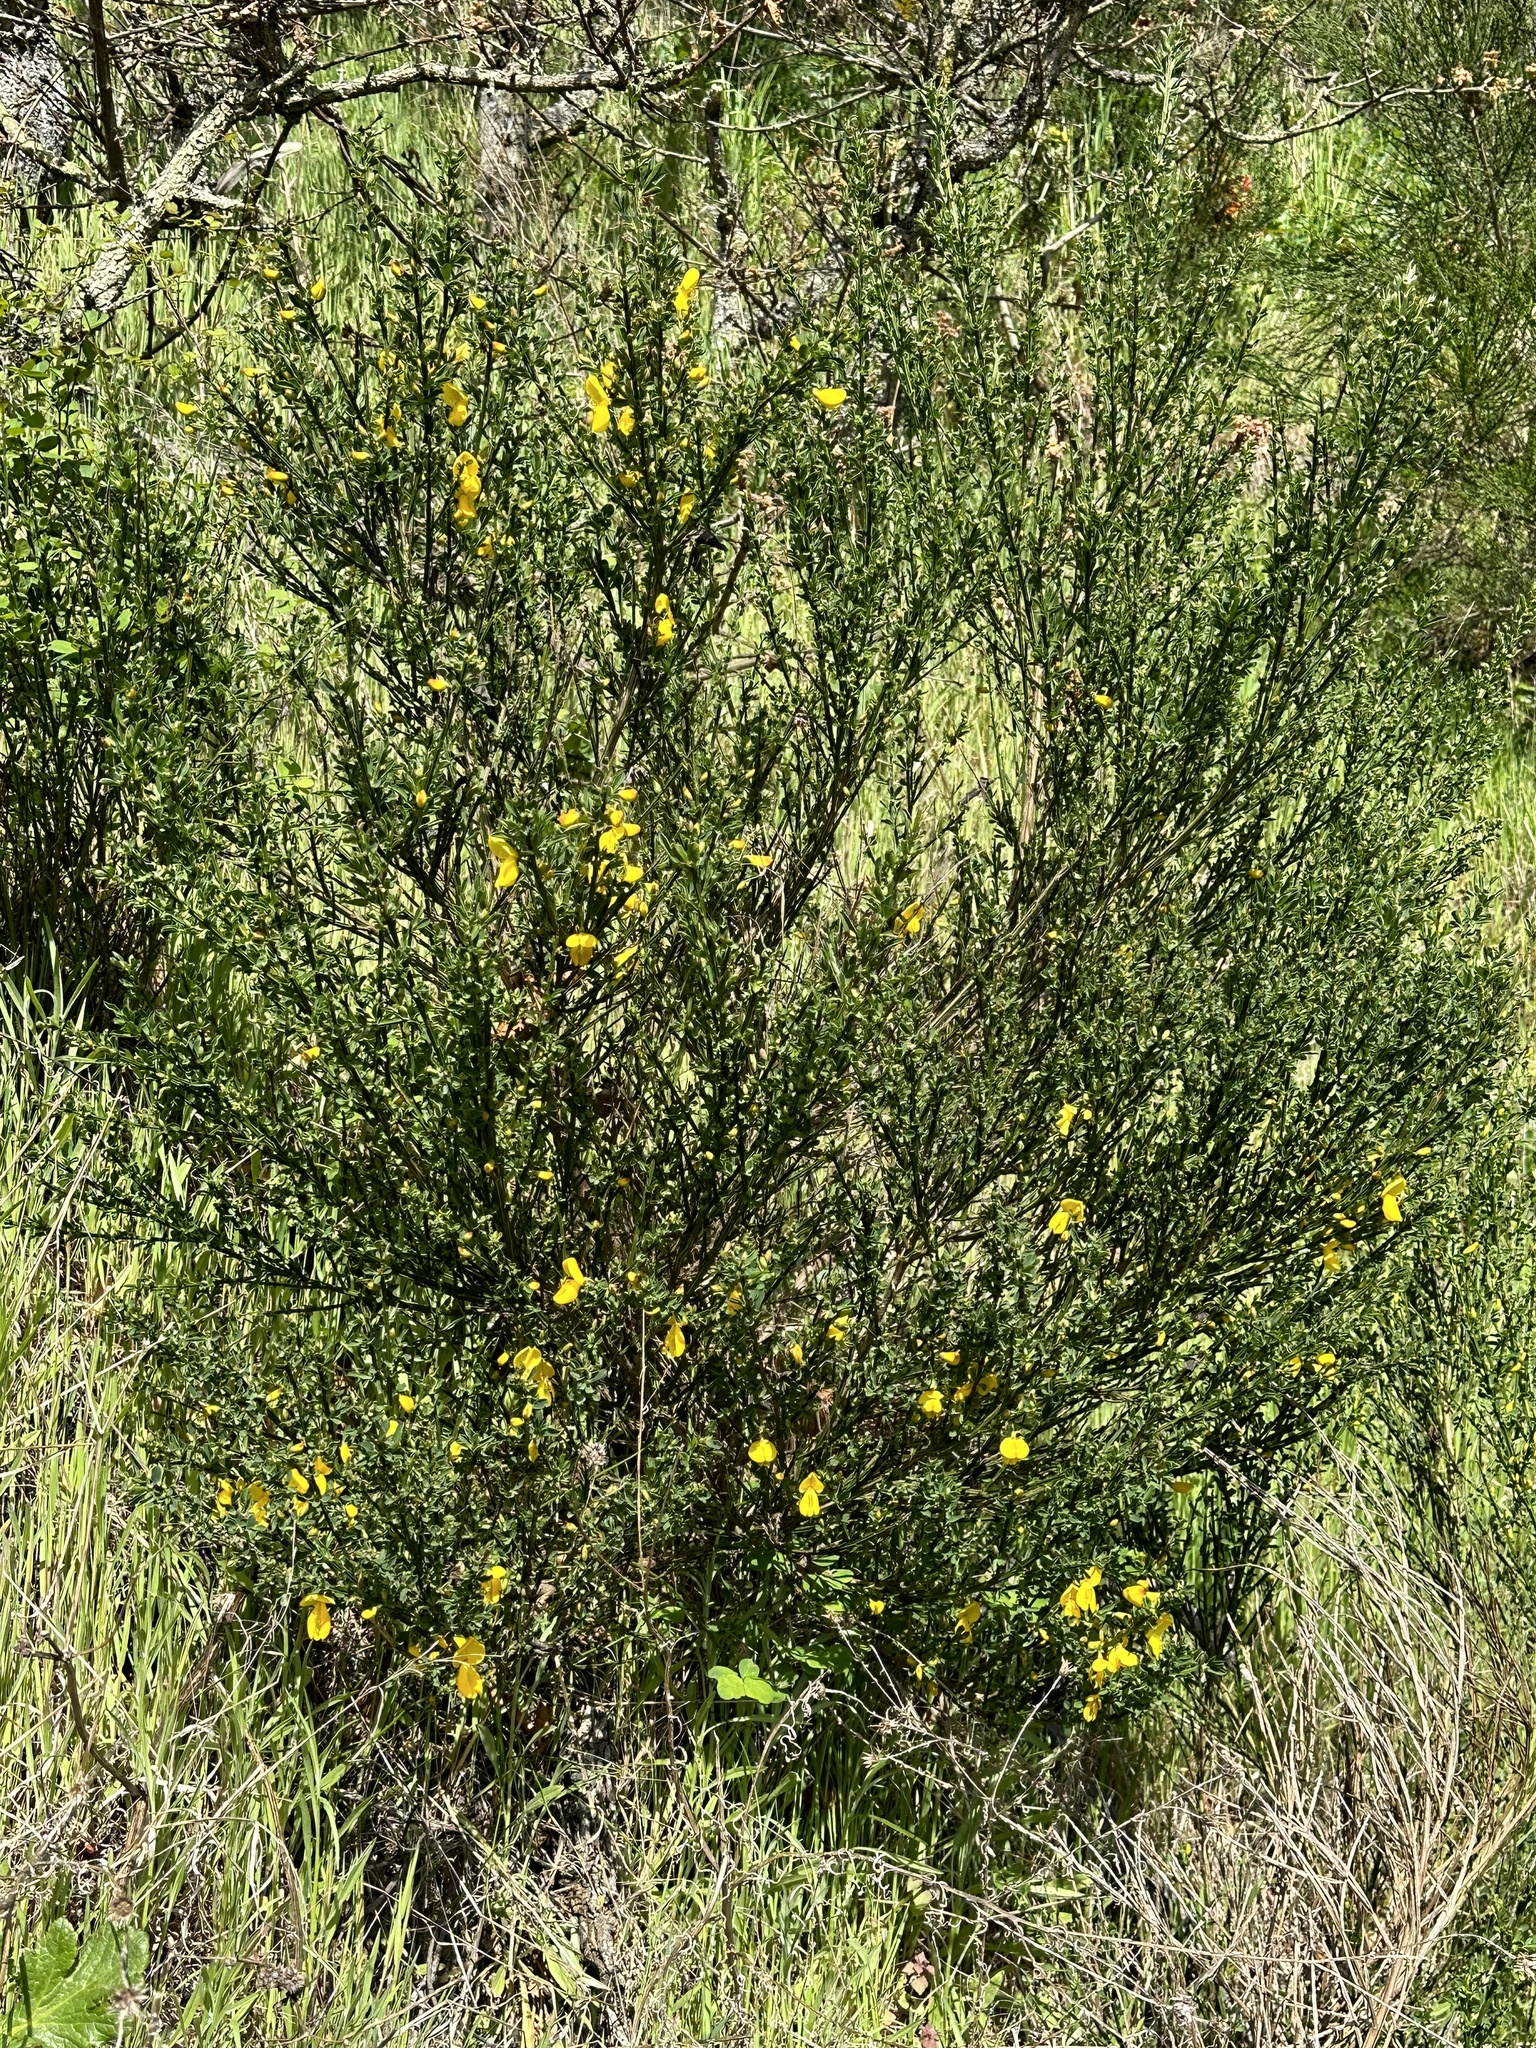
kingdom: Plantae
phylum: Tracheophyta
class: Magnoliopsida
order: Fabales
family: Fabaceae
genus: Cytisus
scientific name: Cytisus scoparius
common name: Scotch broom
